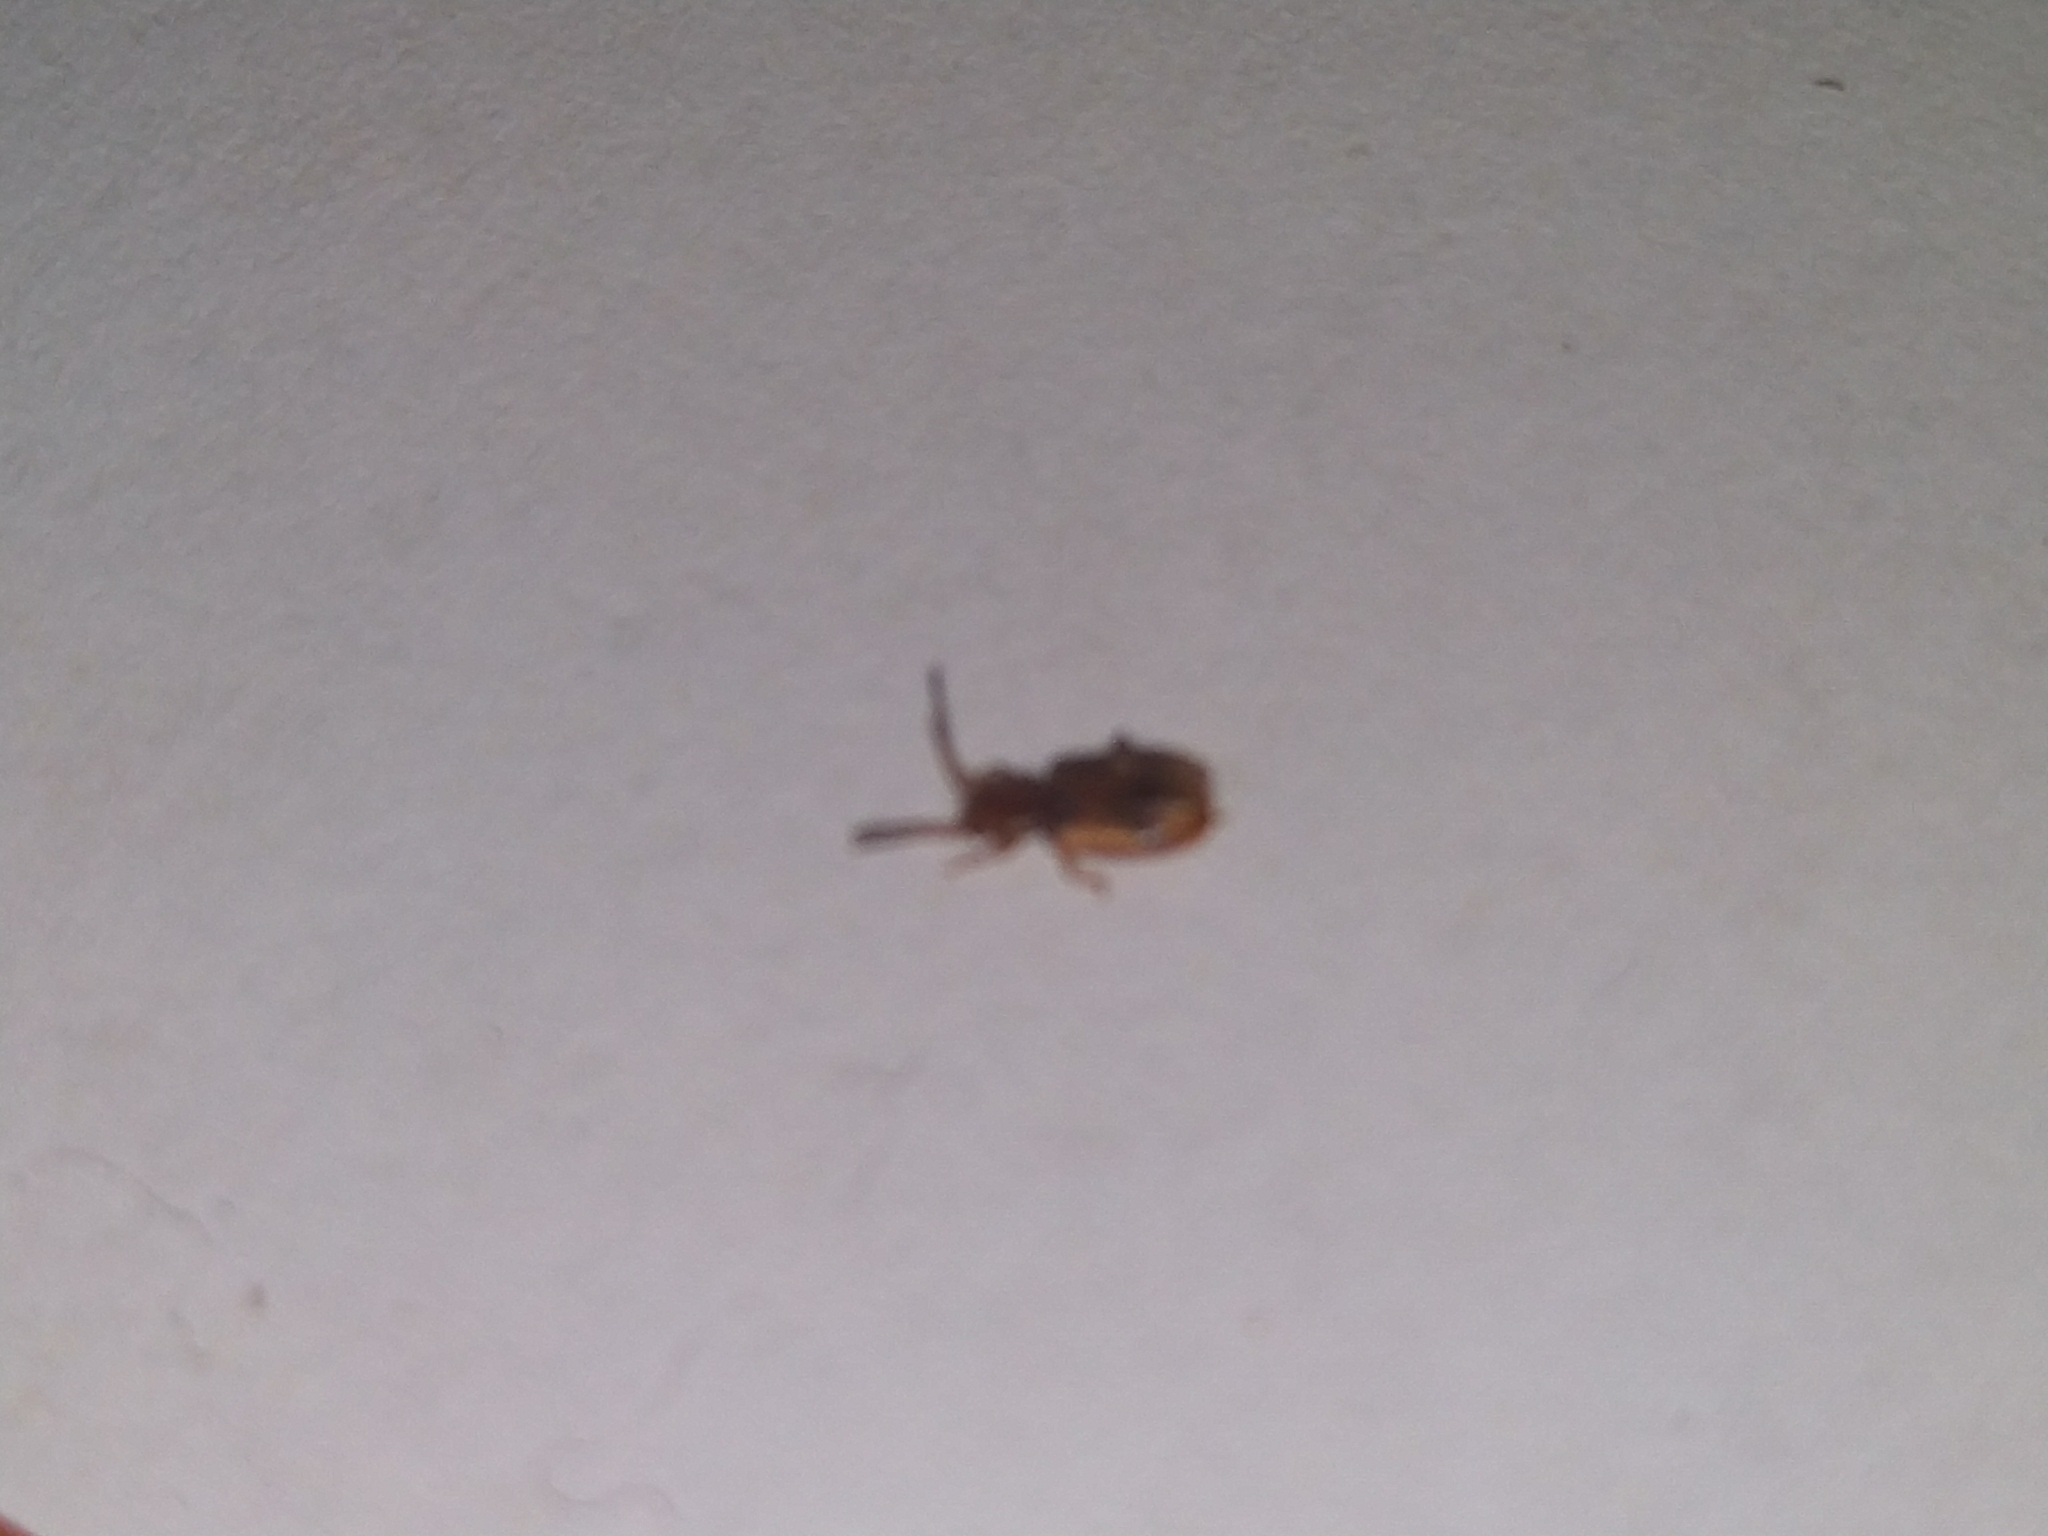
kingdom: Animalia
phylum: Arthropoda
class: Insecta
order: Coleoptera
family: Silvanidae
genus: Cryptamorpha
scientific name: Cryptamorpha desjardinsi
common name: Cryptamorpha
